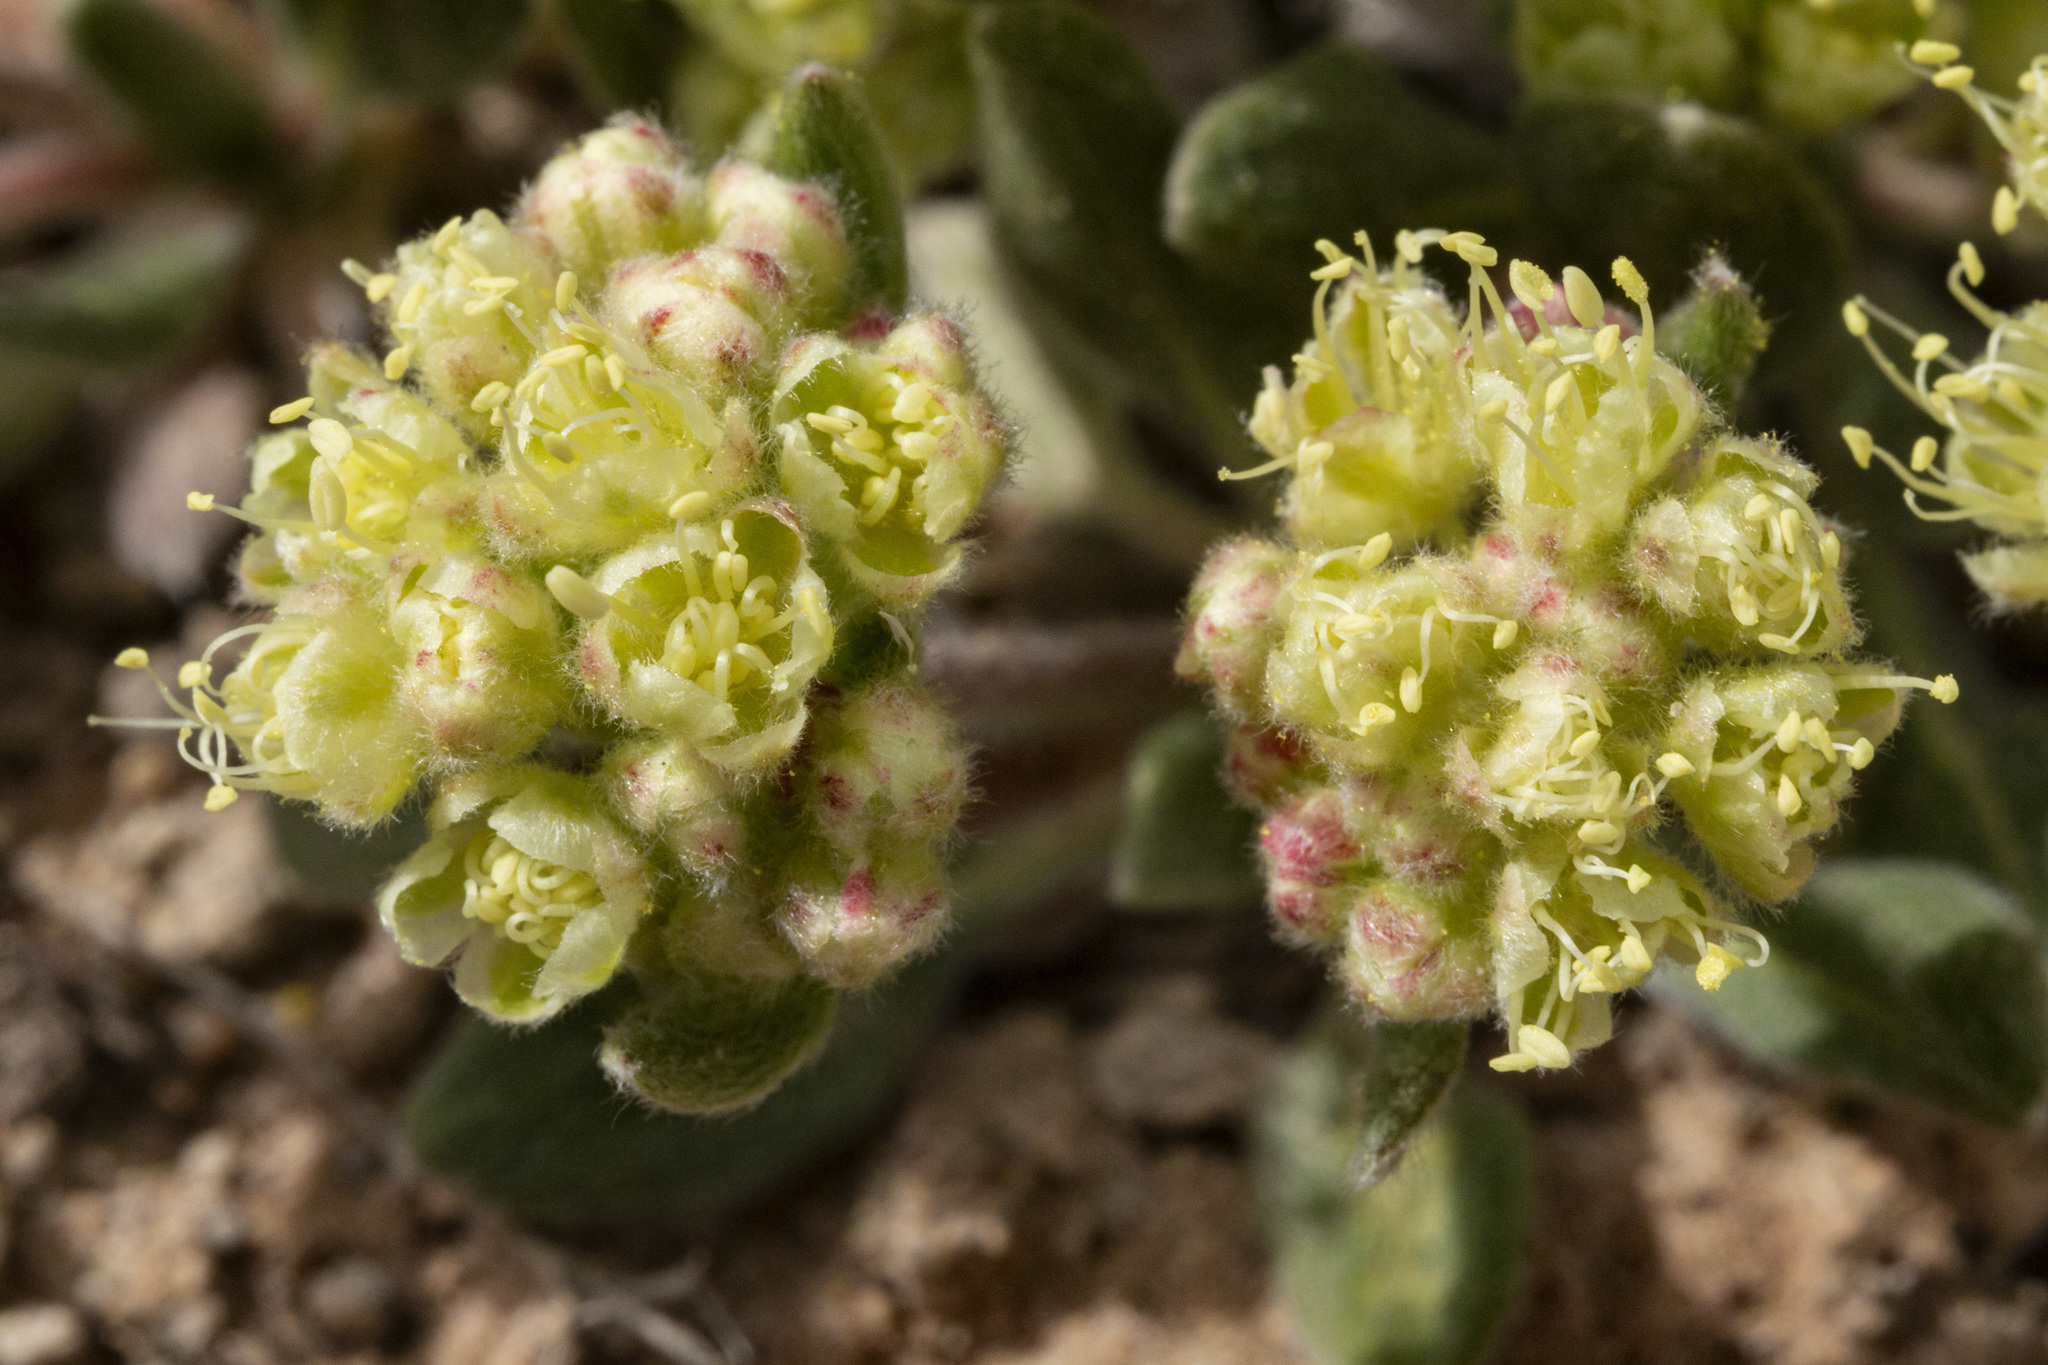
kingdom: Plantae
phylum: Tracheophyta
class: Magnoliopsida
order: Caryophyllales
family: Polygonaceae
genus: Eriogonum
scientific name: Eriogonum flavum
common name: Alpine golden wild buckwheat
